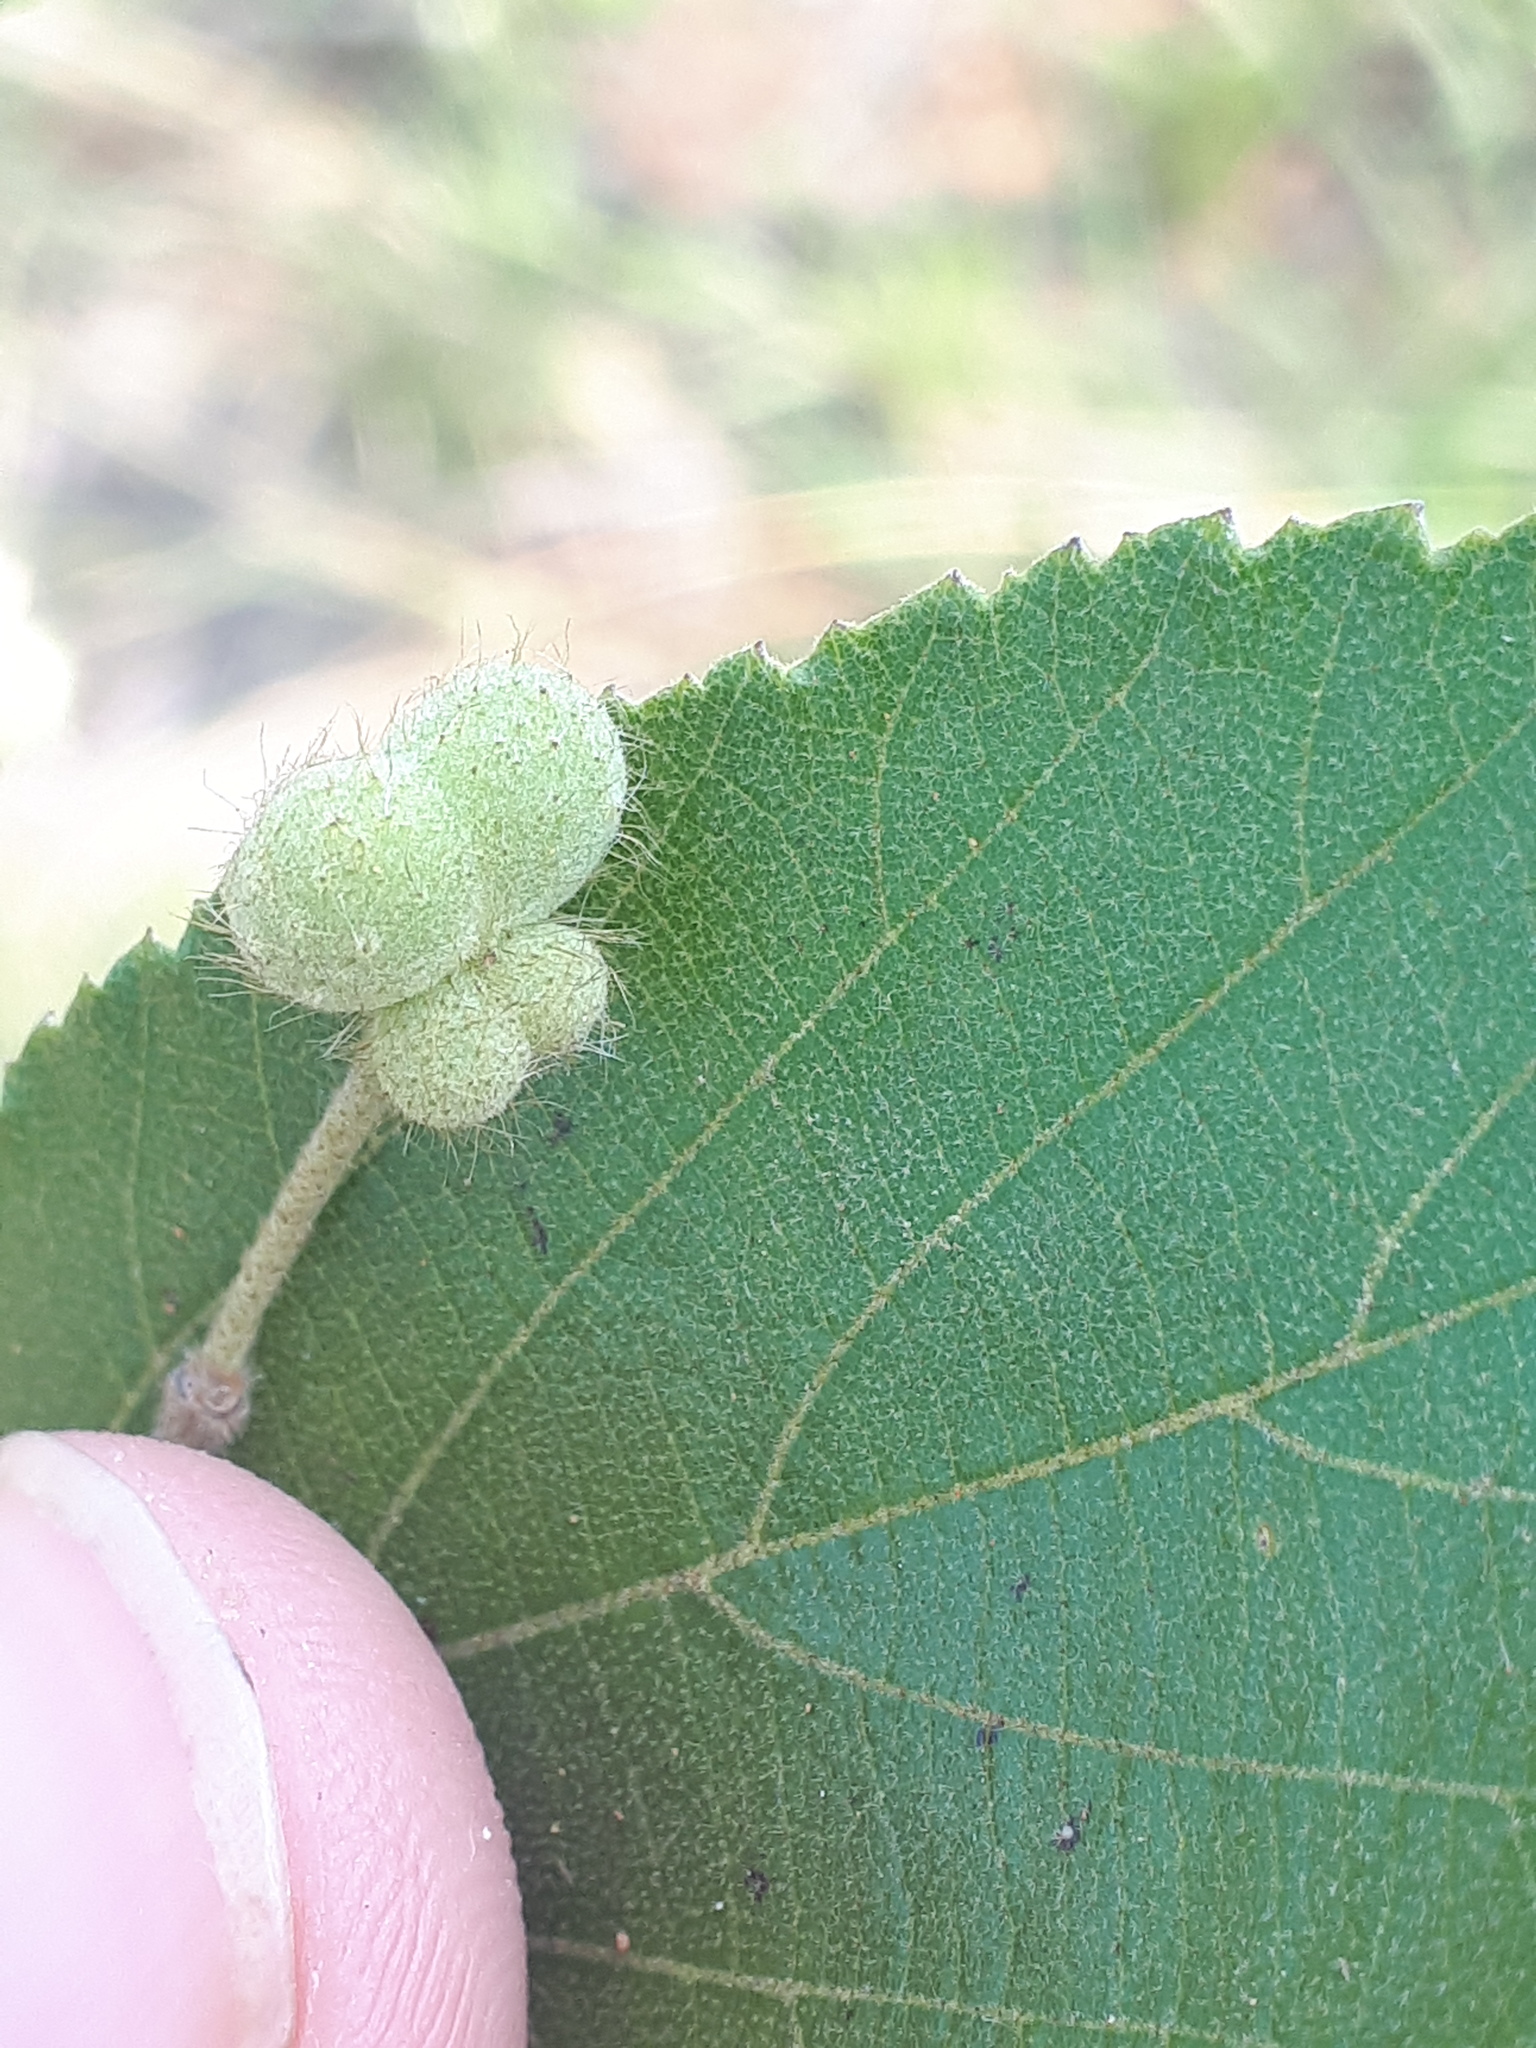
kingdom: Plantae
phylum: Tracheophyta
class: Magnoliopsida
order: Malvales
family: Malvaceae
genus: Grewia
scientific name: Grewia rogersii
